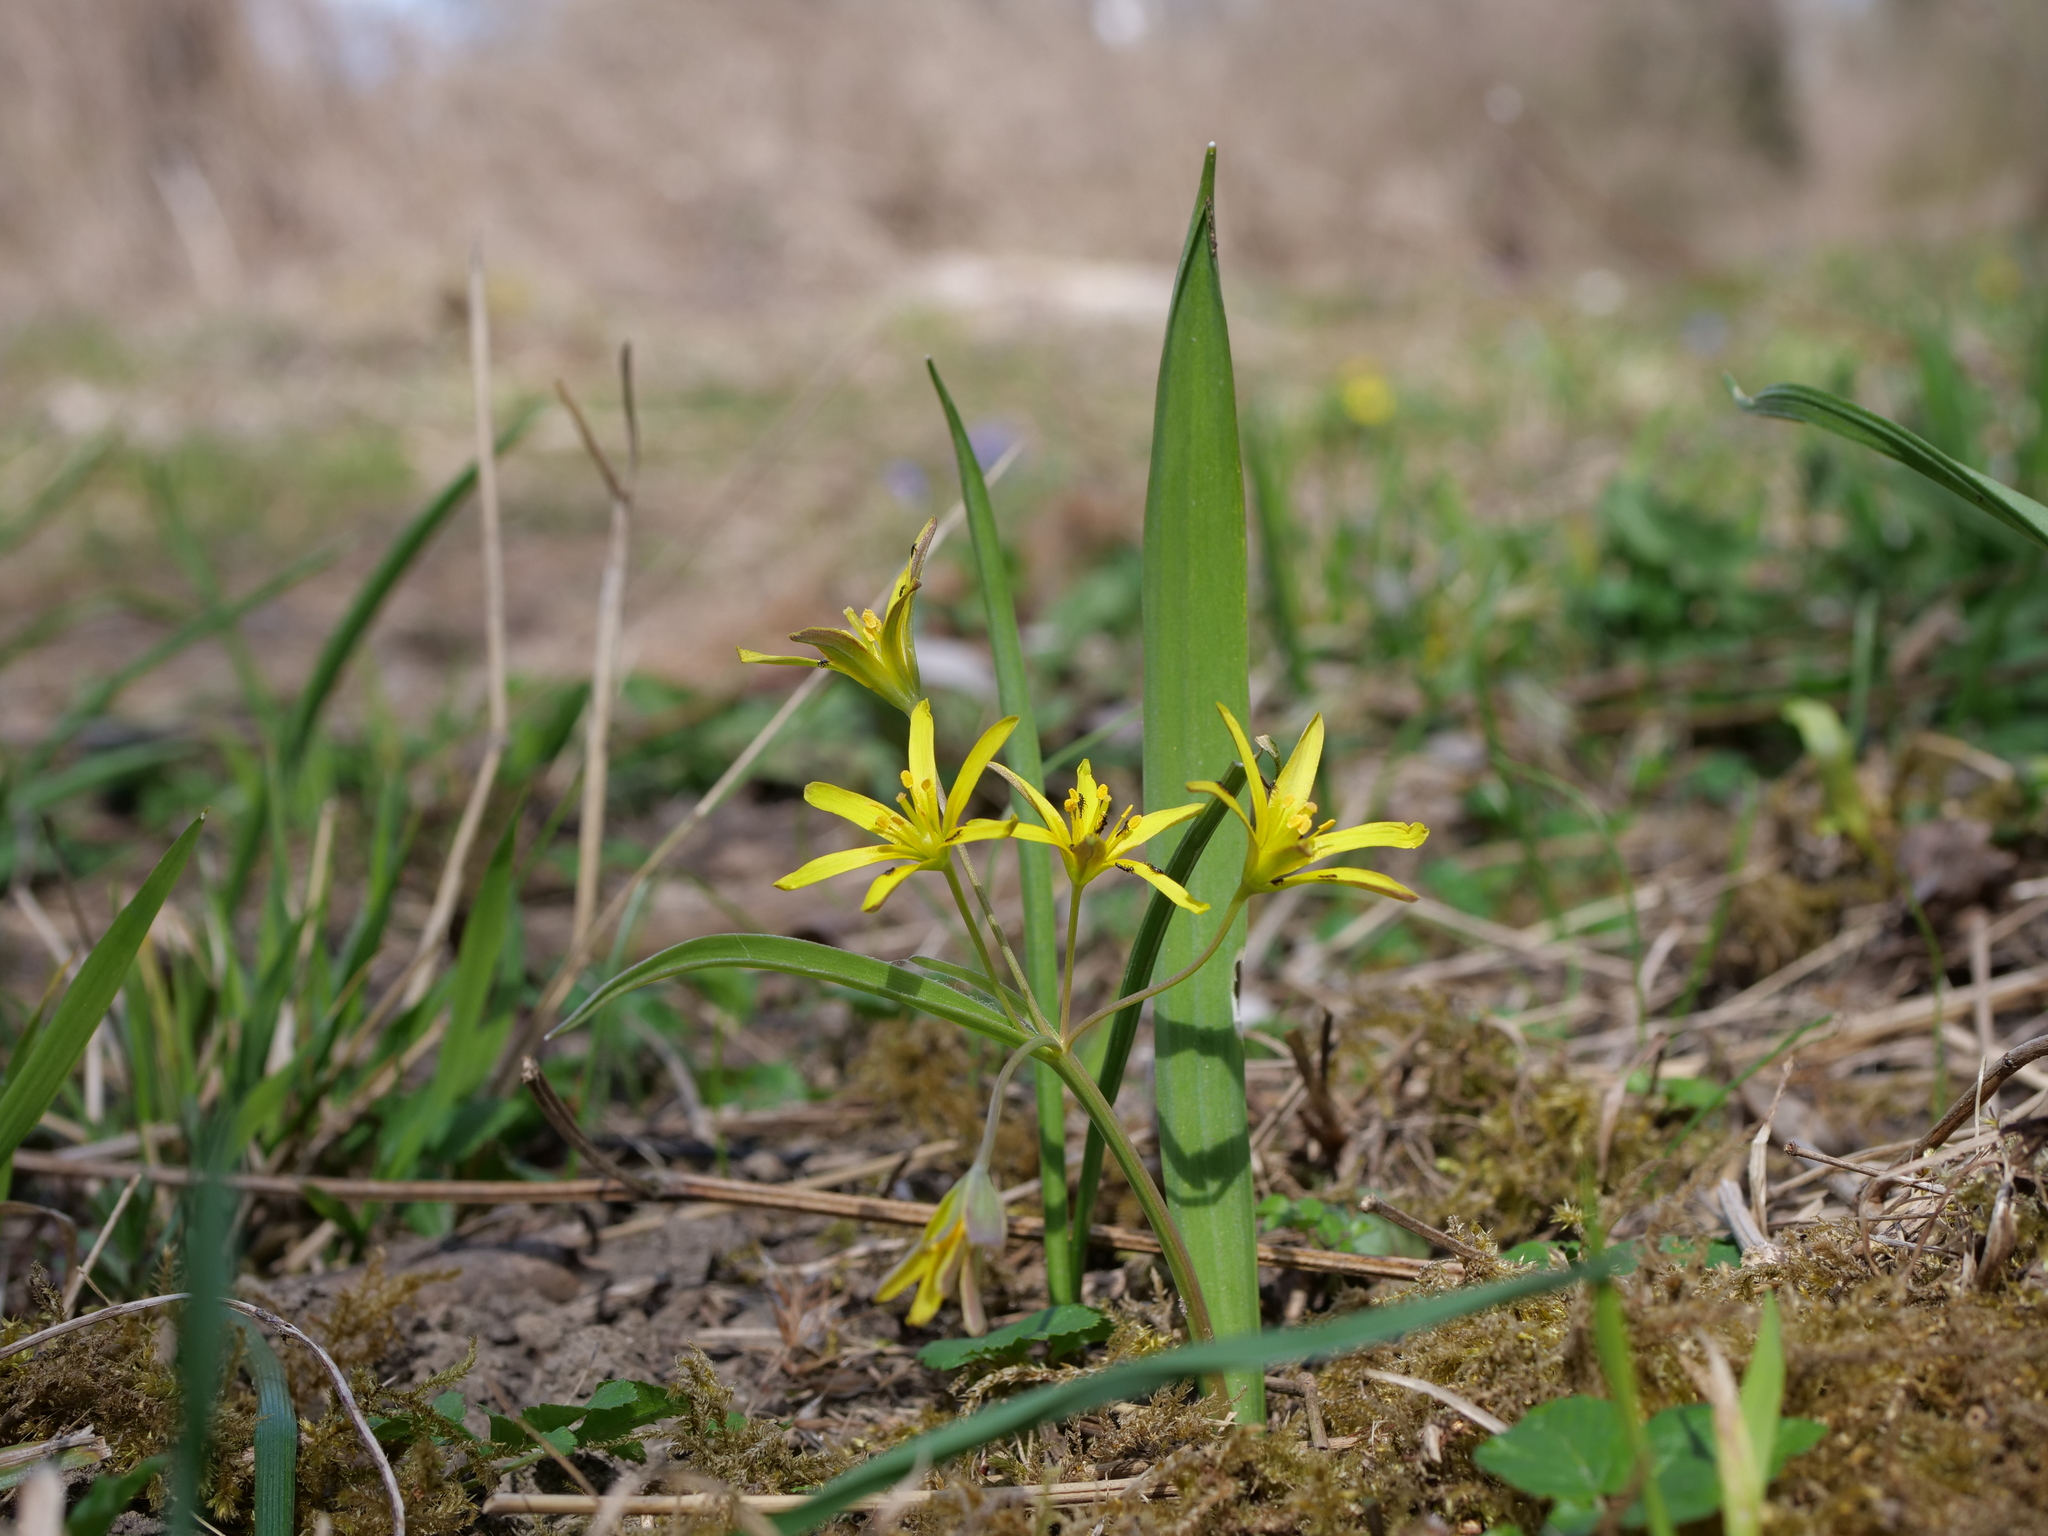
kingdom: Plantae
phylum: Tracheophyta
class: Liliopsida
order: Liliales
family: Liliaceae
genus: Gagea
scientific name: Gagea lutea
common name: Yellow star-of-bethlehem
